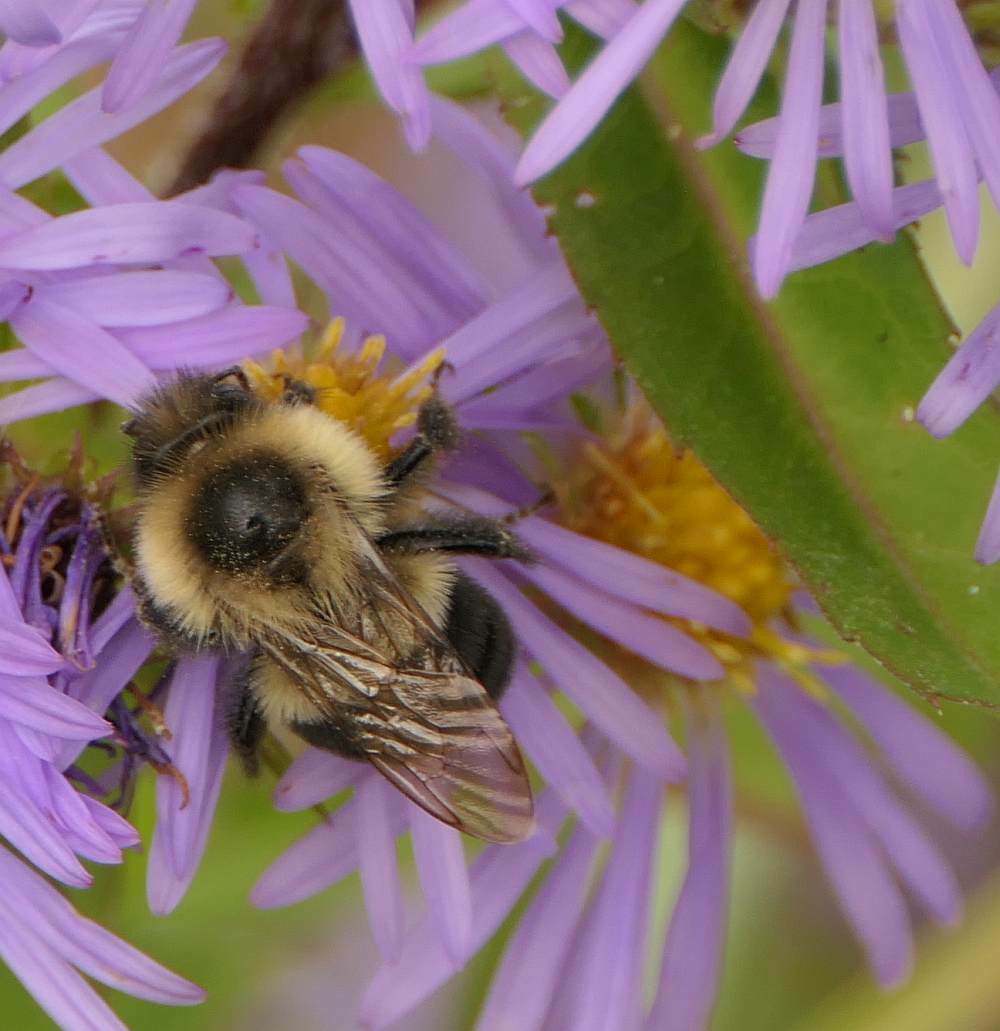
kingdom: Animalia
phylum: Arthropoda
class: Insecta
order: Hymenoptera
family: Apidae
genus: Bombus
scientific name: Bombus impatiens
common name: Common eastern bumble bee
